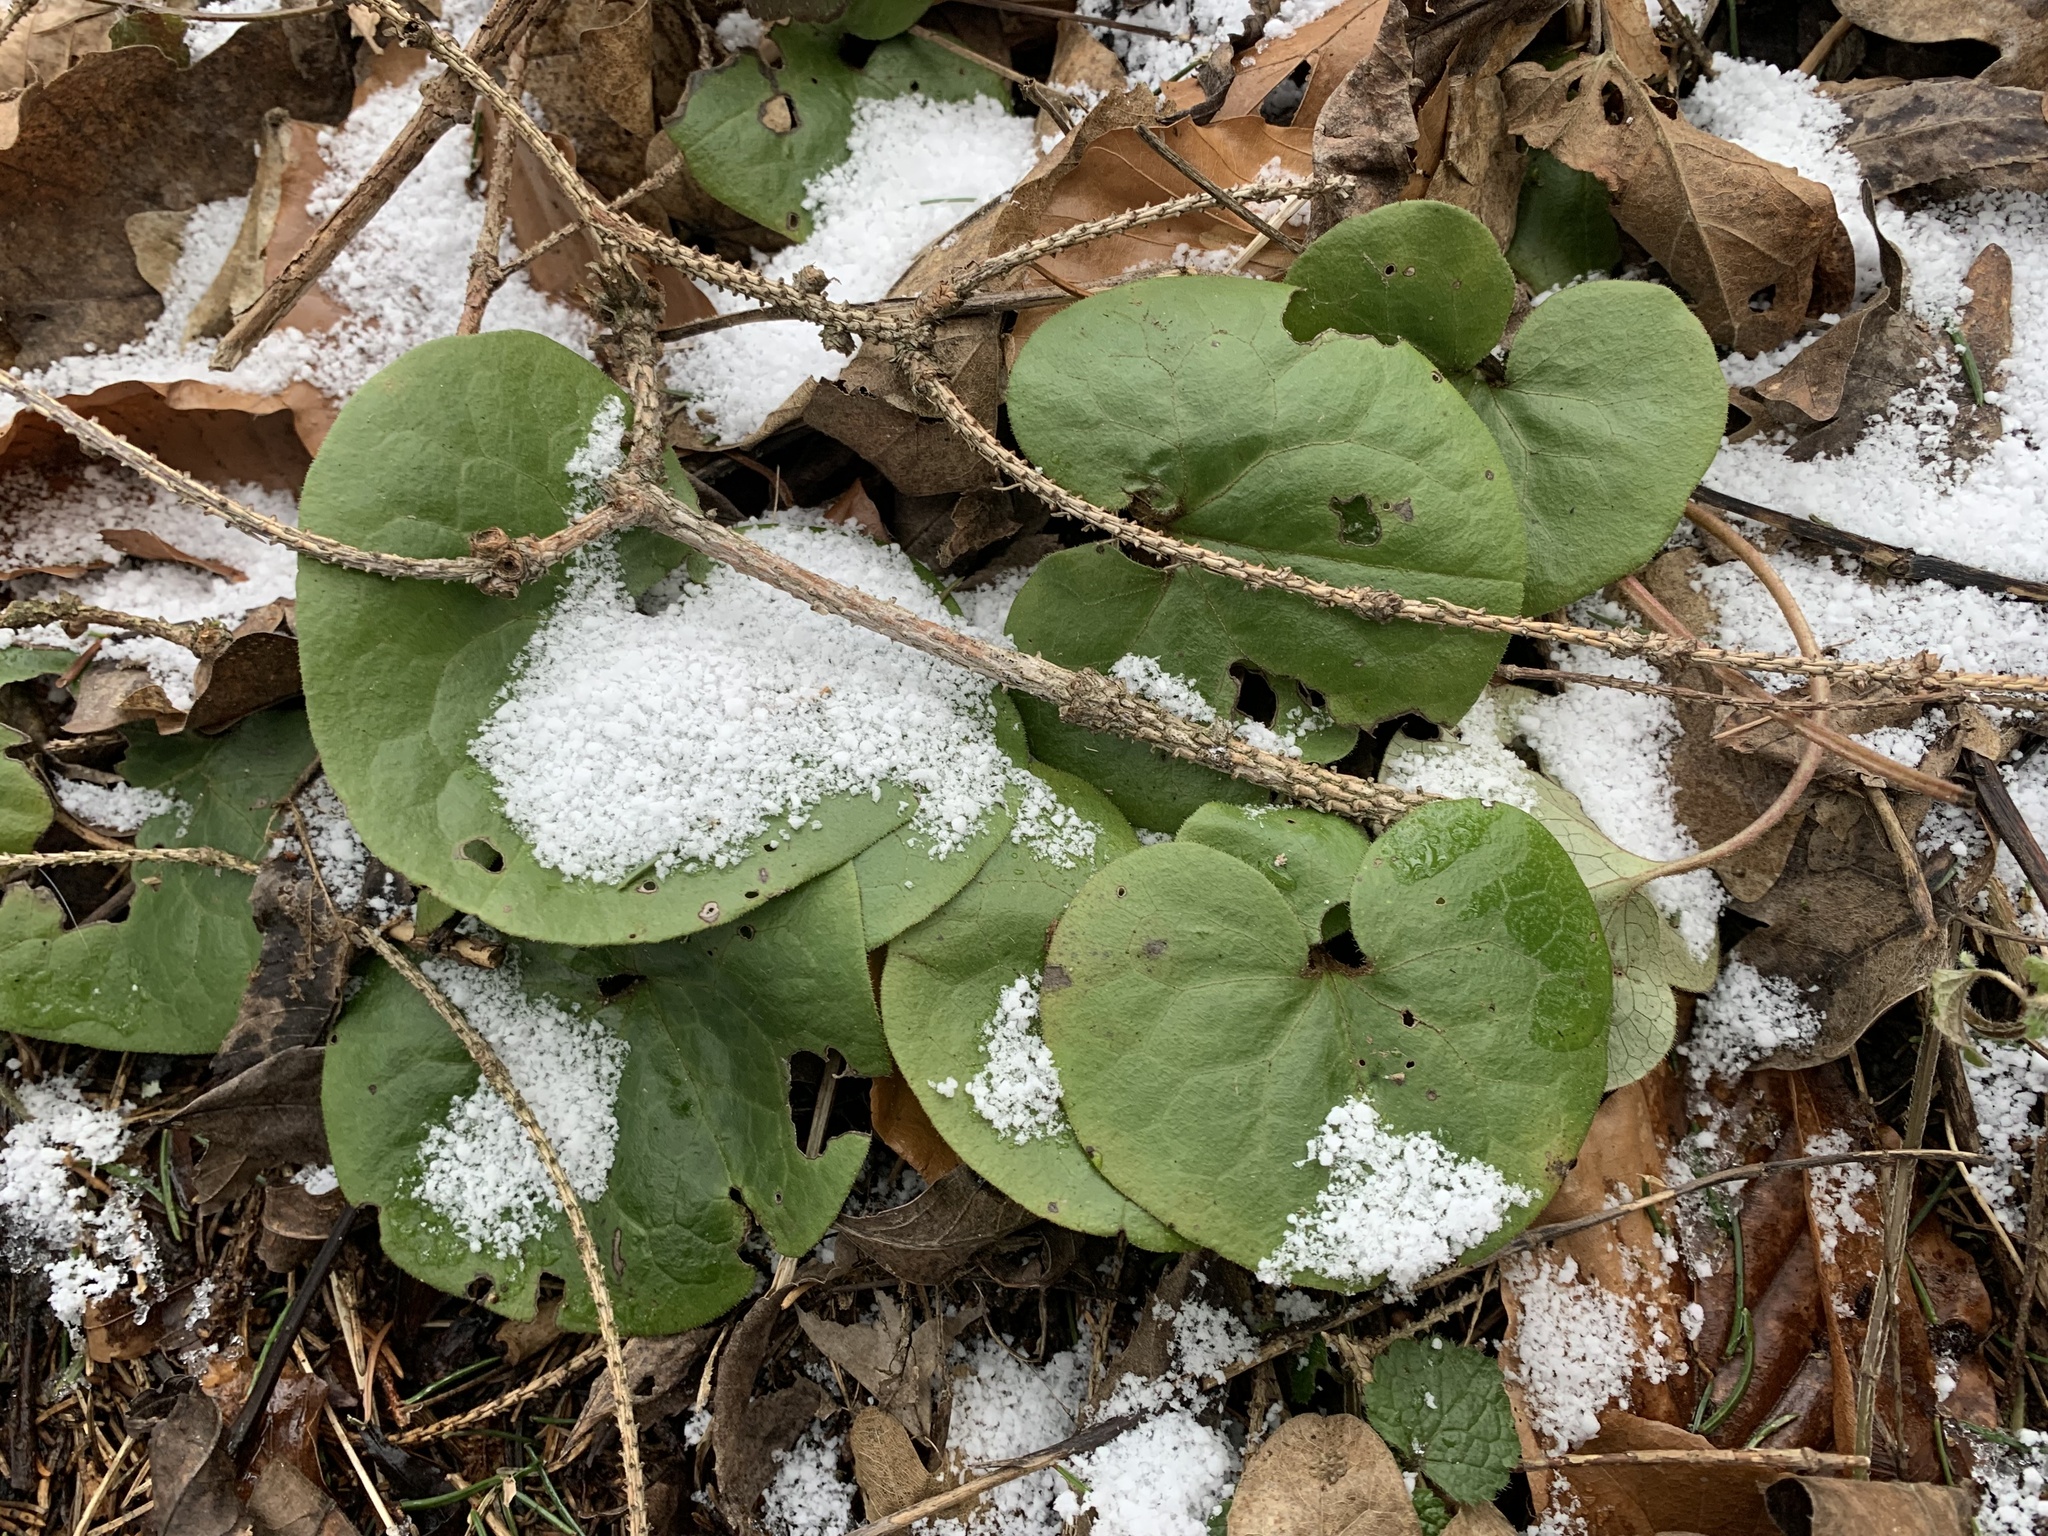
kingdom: Plantae
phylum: Tracheophyta
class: Magnoliopsida
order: Piperales
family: Aristolochiaceae
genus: Asarum
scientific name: Asarum europaeum
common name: Asarabacca
